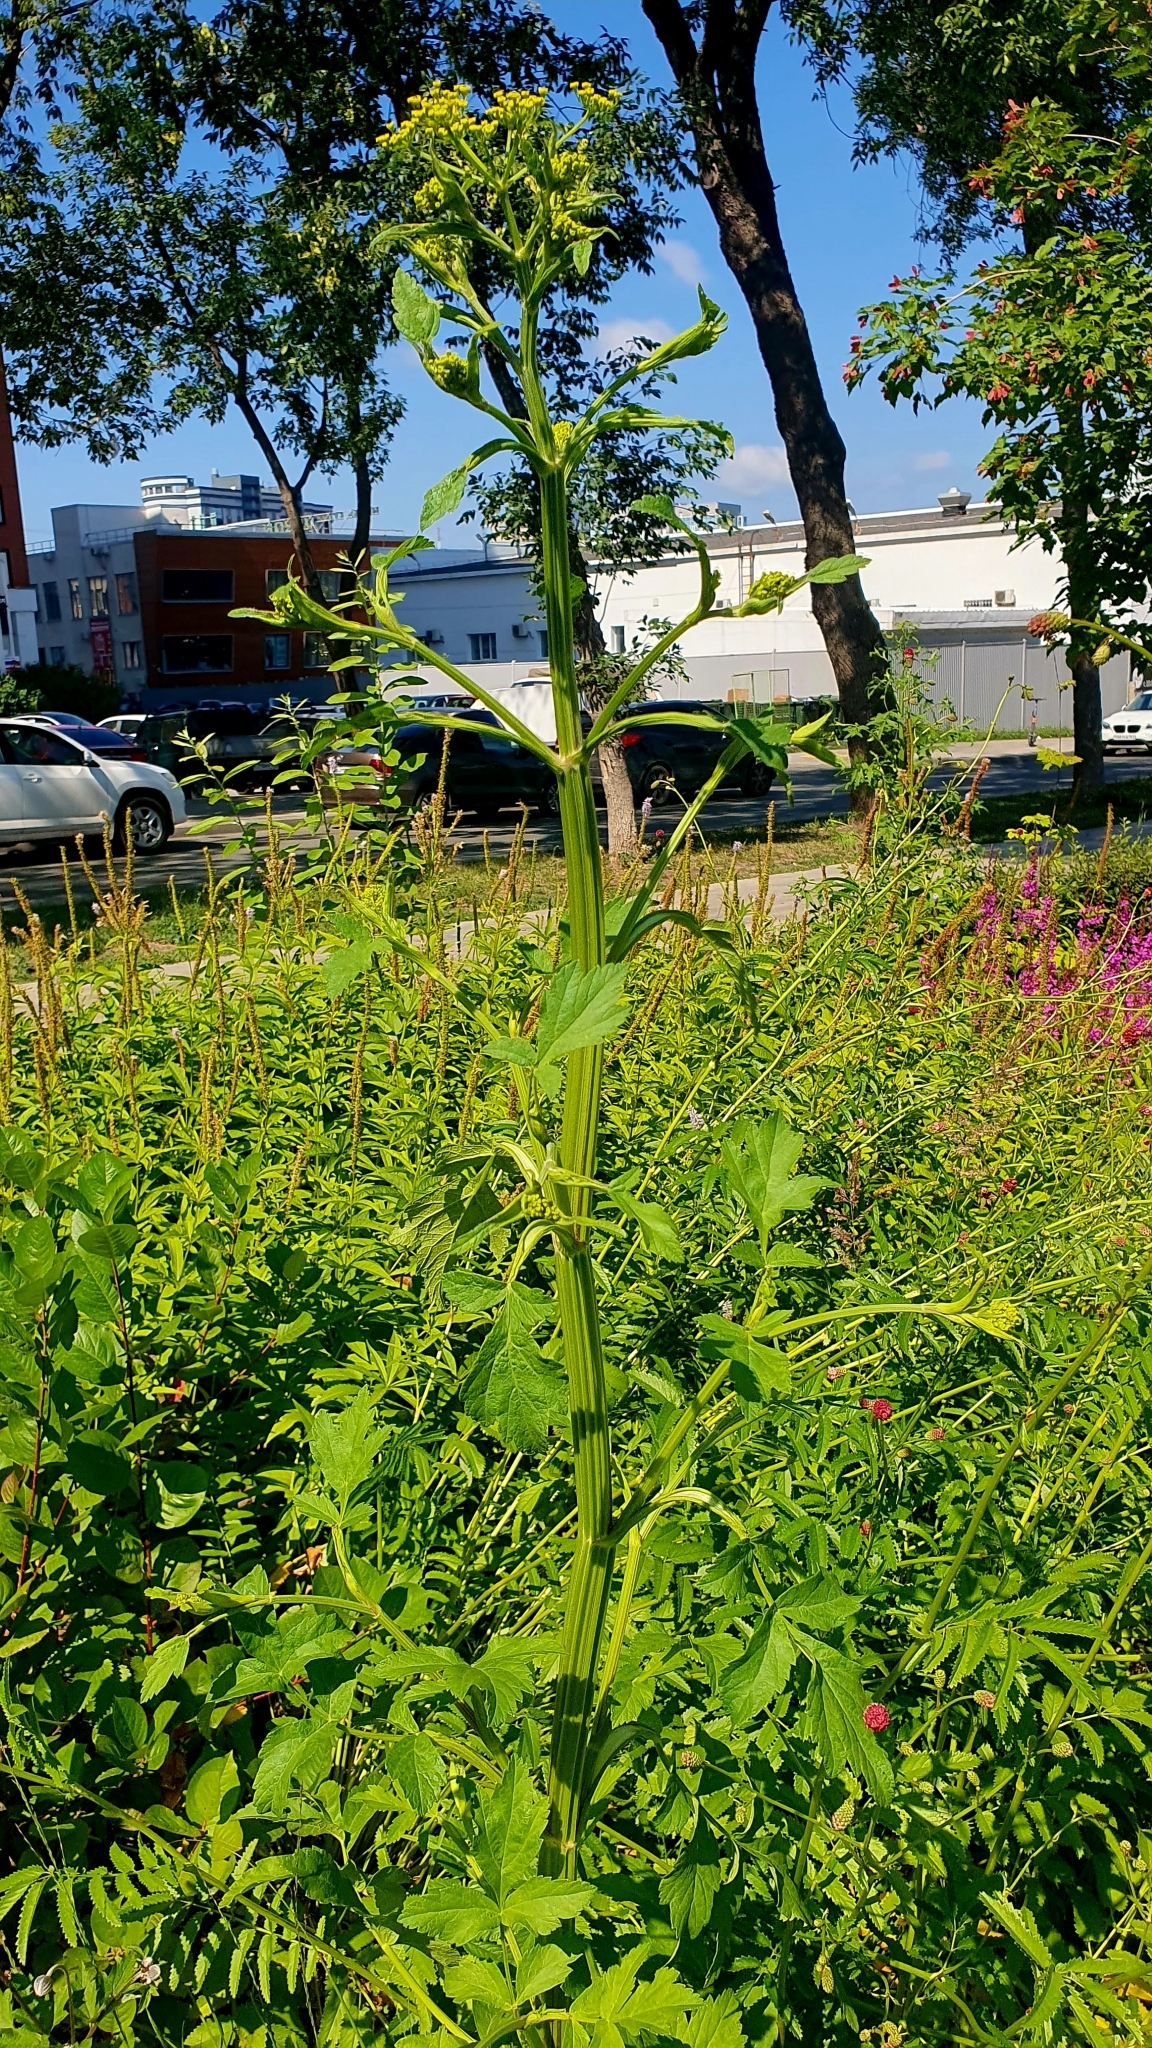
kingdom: Plantae
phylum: Tracheophyta
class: Magnoliopsida
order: Apiales
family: Apiaceae
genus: Pastinaca
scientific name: Pastinaca sativa
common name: Wild parsnip
